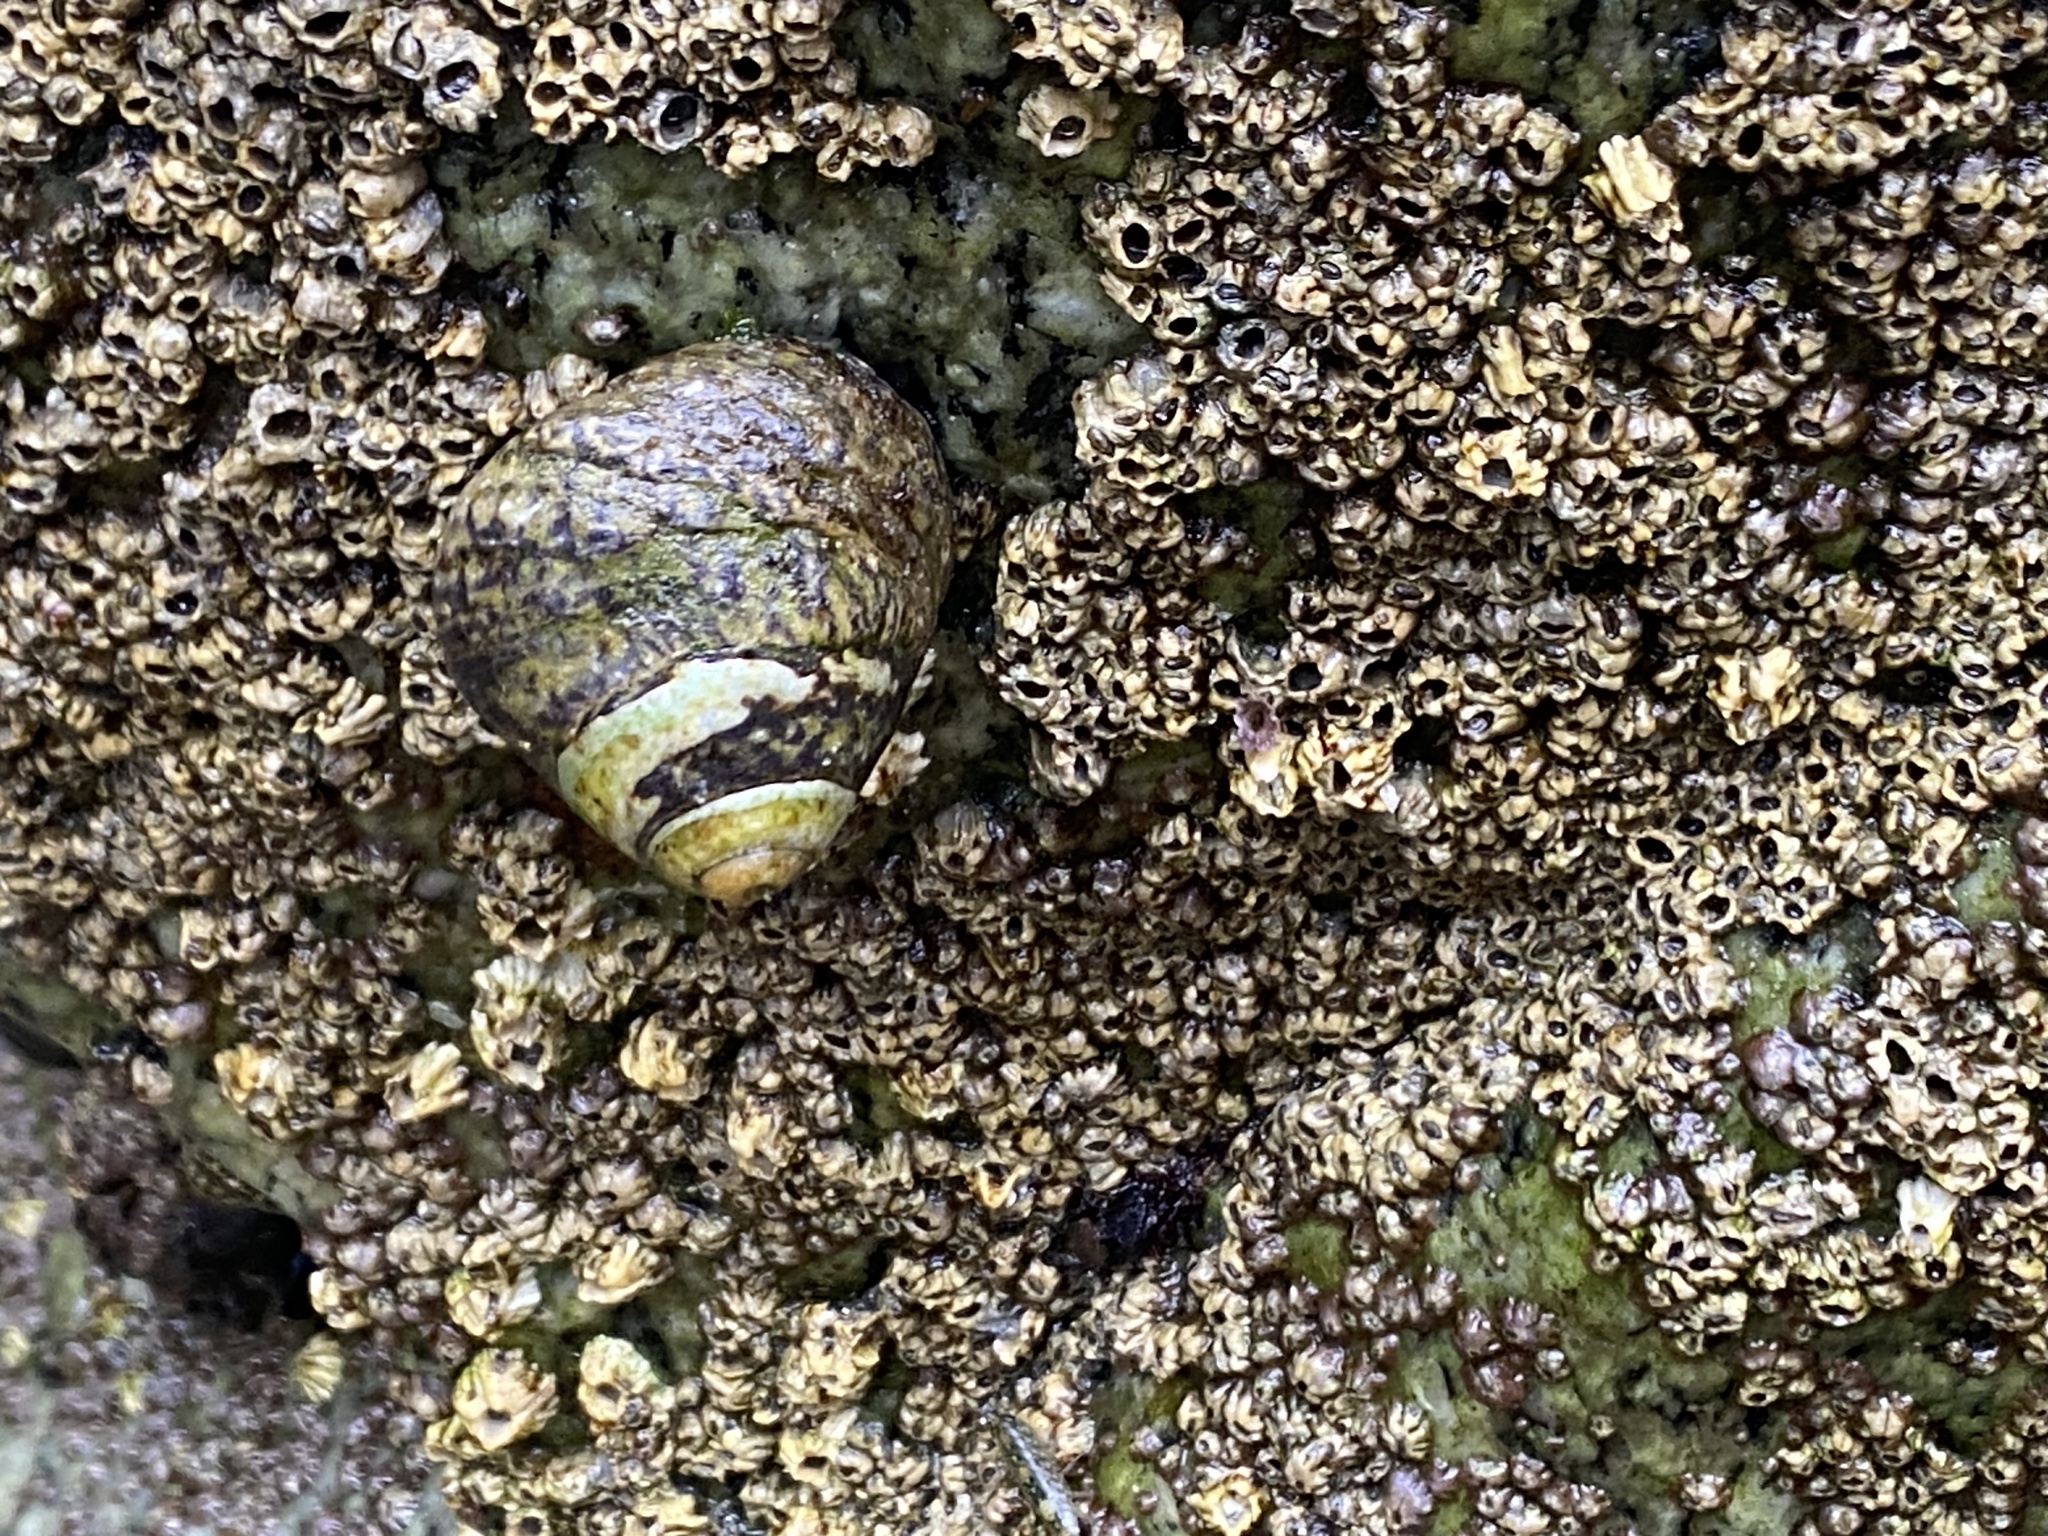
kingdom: Animalia
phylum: Mollusca
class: Gastropoda
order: Trochida
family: Tegulidae
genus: Tegula
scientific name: Tegula gallina
